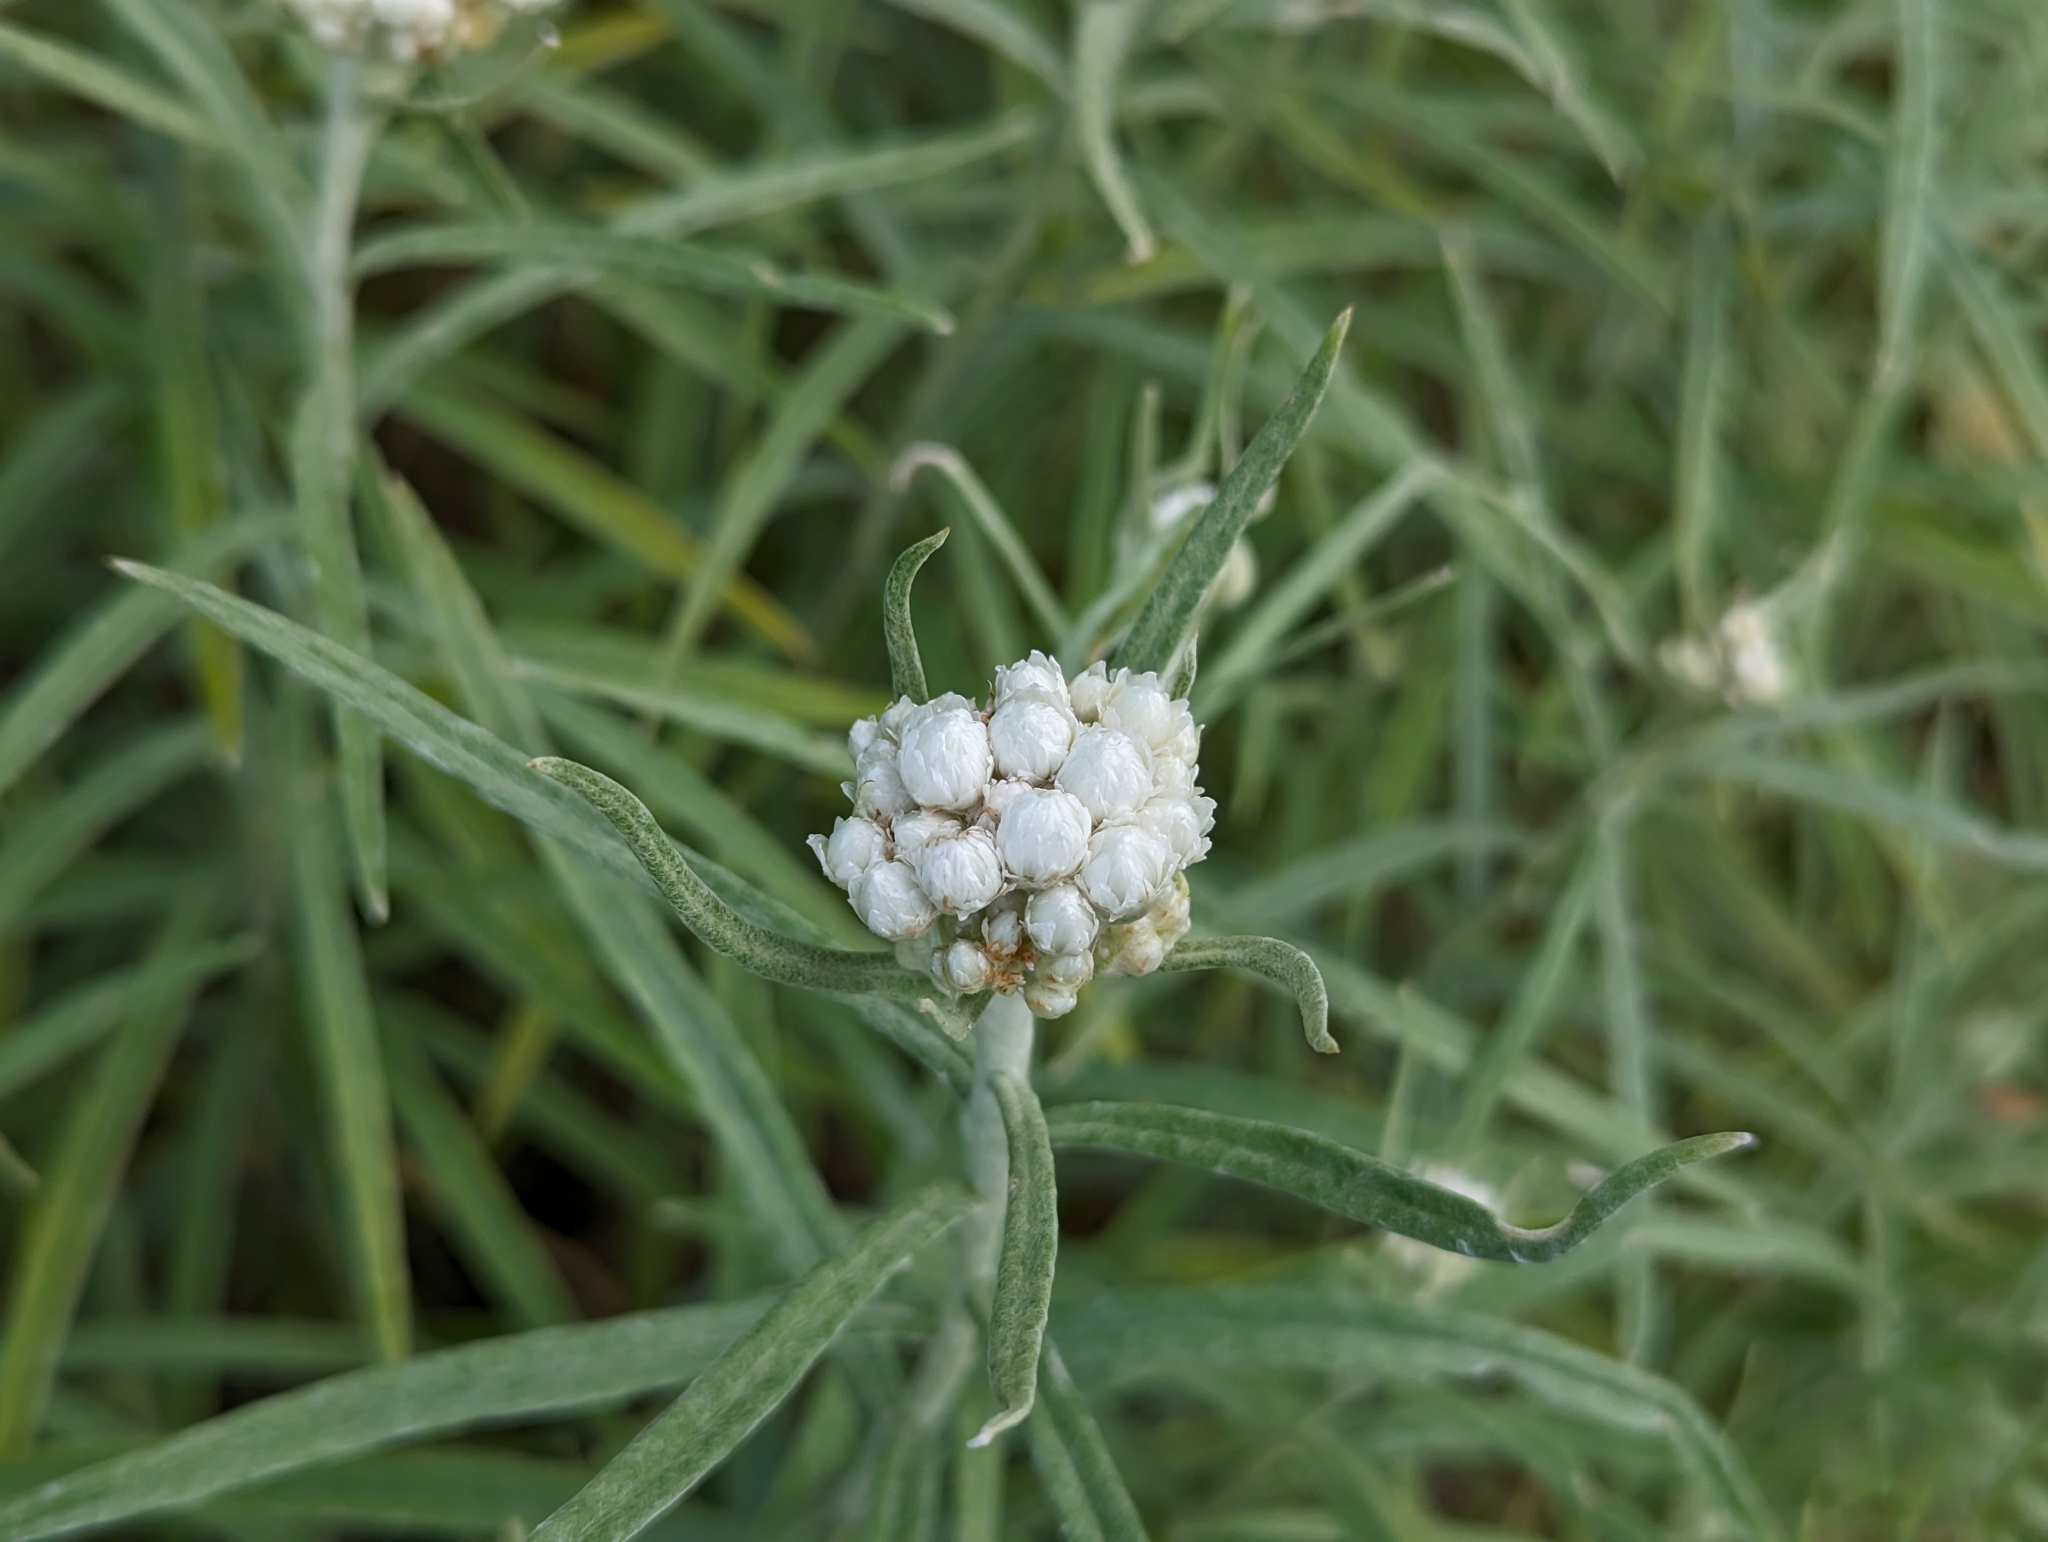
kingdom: Plantae
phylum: Tracheophyta
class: Magnoliopsida
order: Asterales
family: Asteraceae
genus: Anaphalis
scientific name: Anaphalis margaritacea
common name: Pearly everlasting
